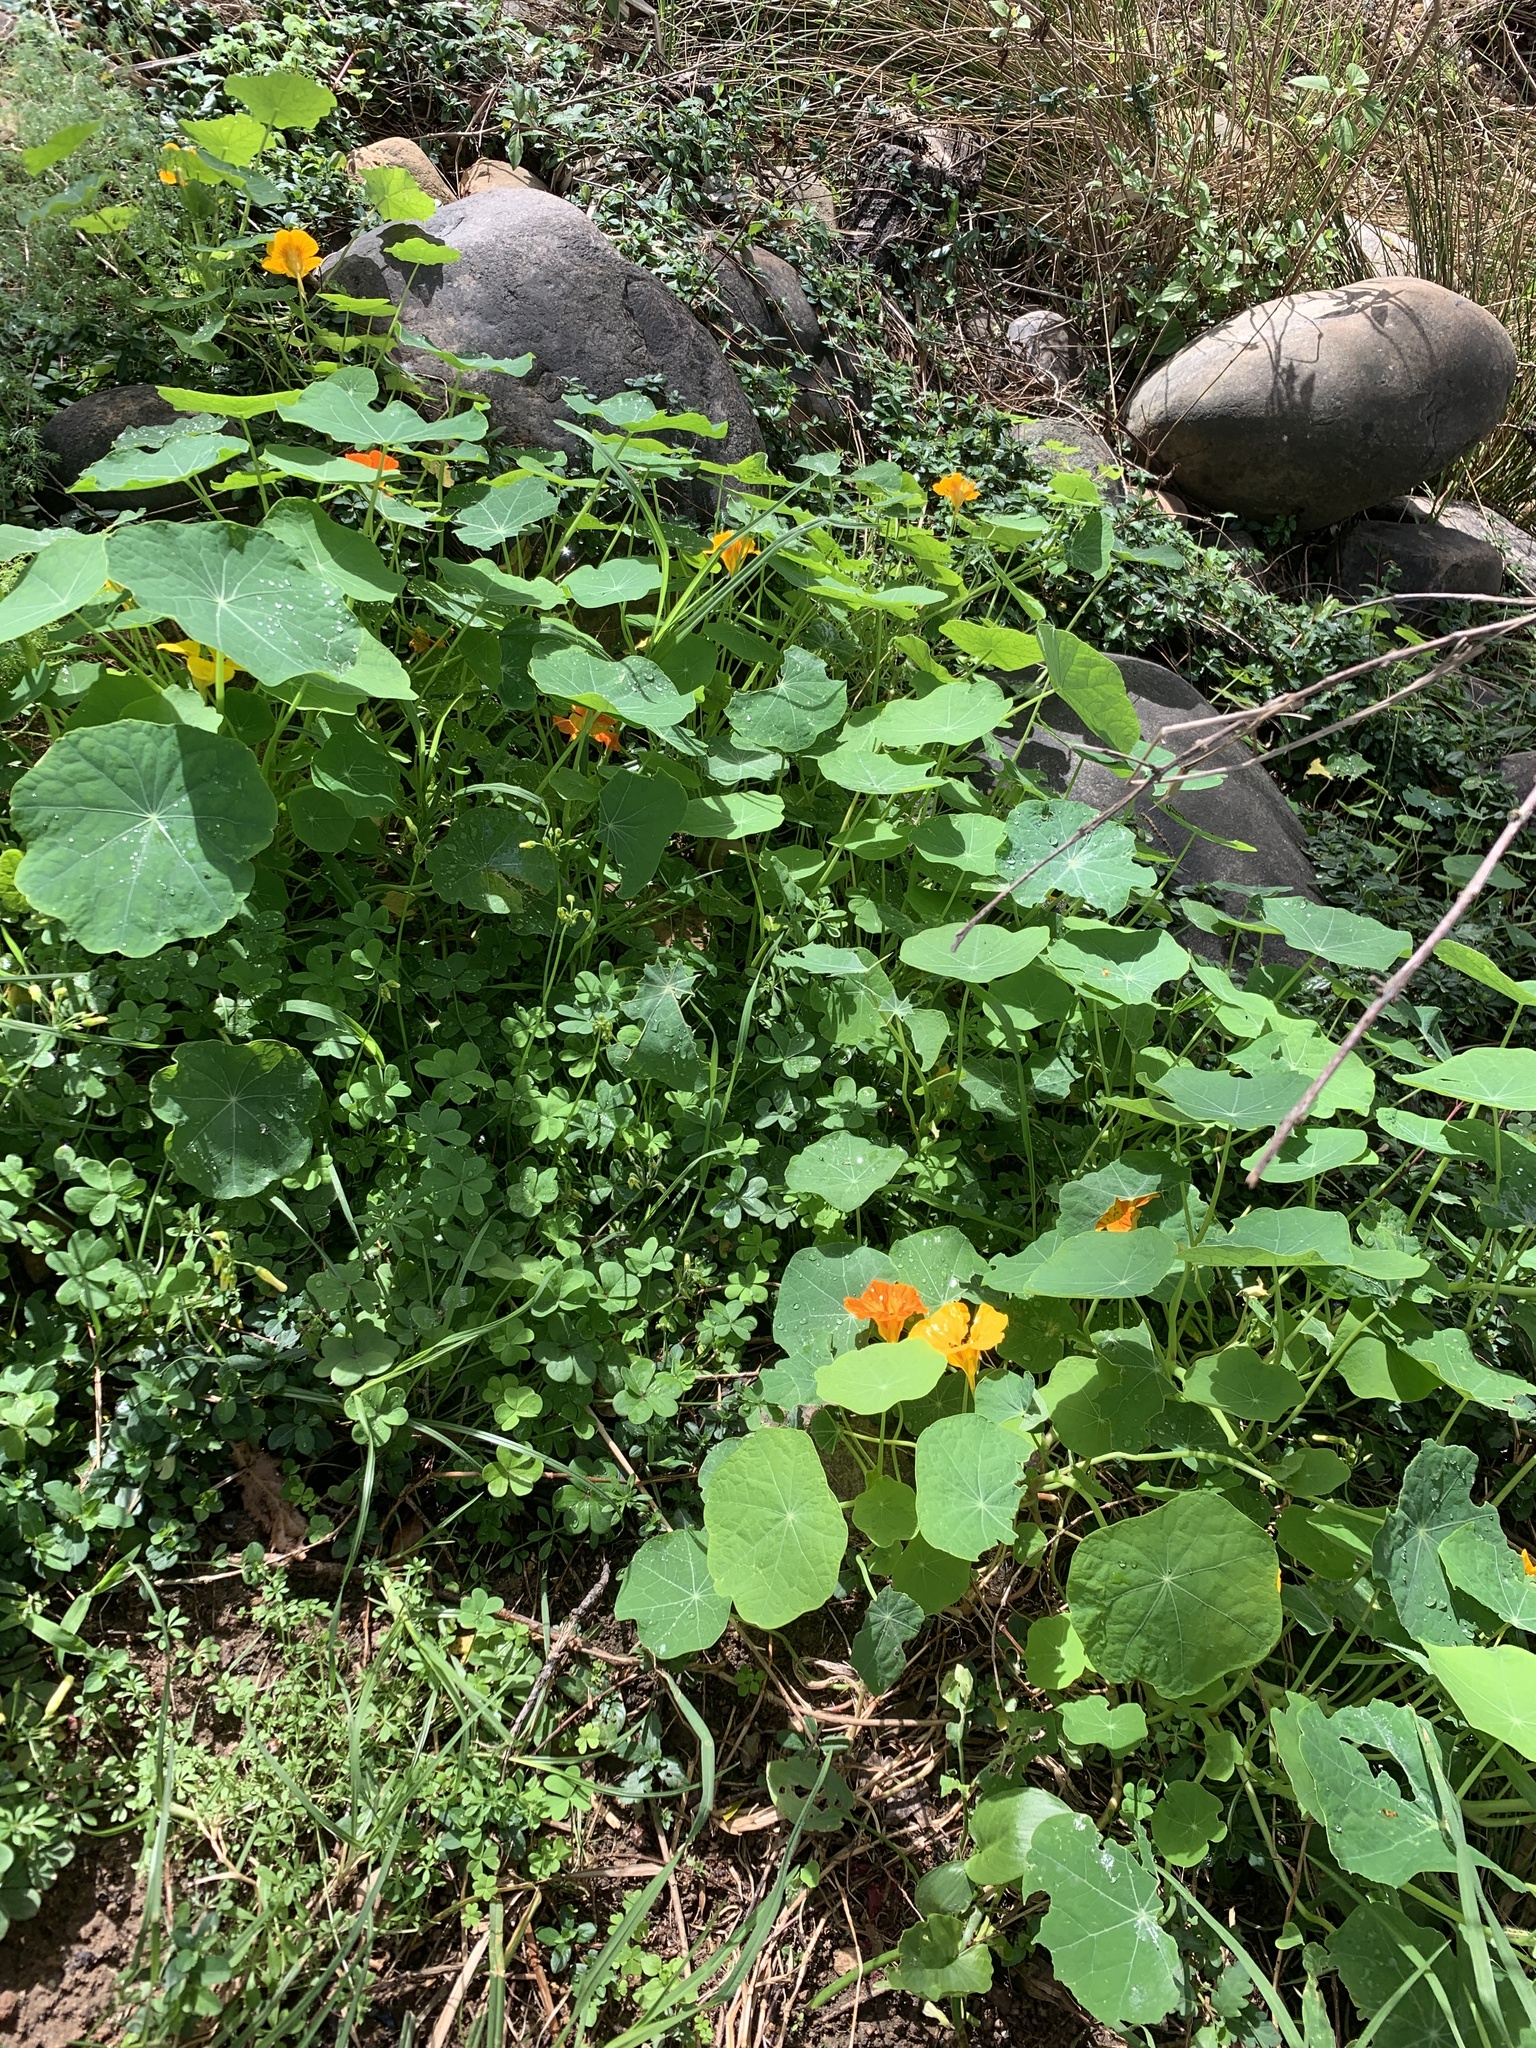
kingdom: Plantae
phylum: Tracheophyta
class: Magnoliopsida
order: Brassicales
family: Tropaeolaceae
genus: Tropaeolum
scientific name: Tropaeolum majus
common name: Nasturtium
